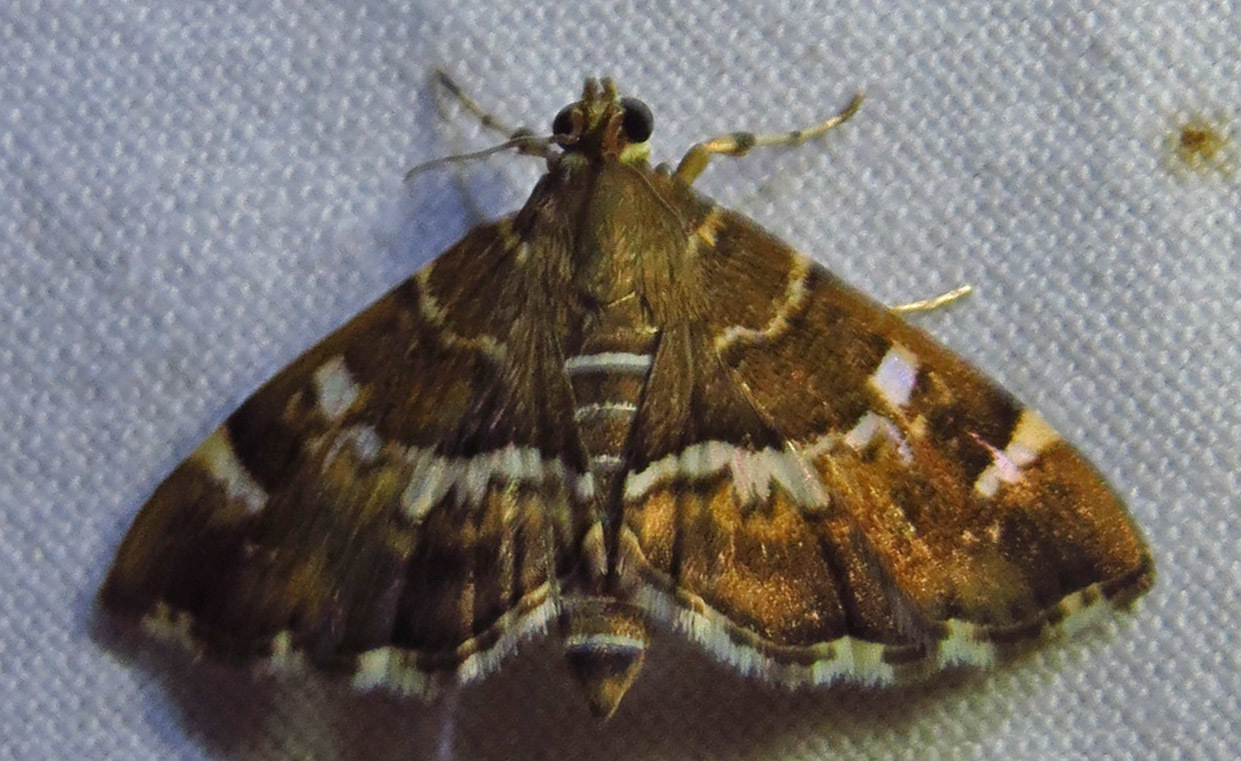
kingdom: Animalia
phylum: Arthropoda
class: Insecta
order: Lepidoptera
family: Crambidae
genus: Hymenia
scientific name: Hymenia perspectalis
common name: Spotted beet webworm
